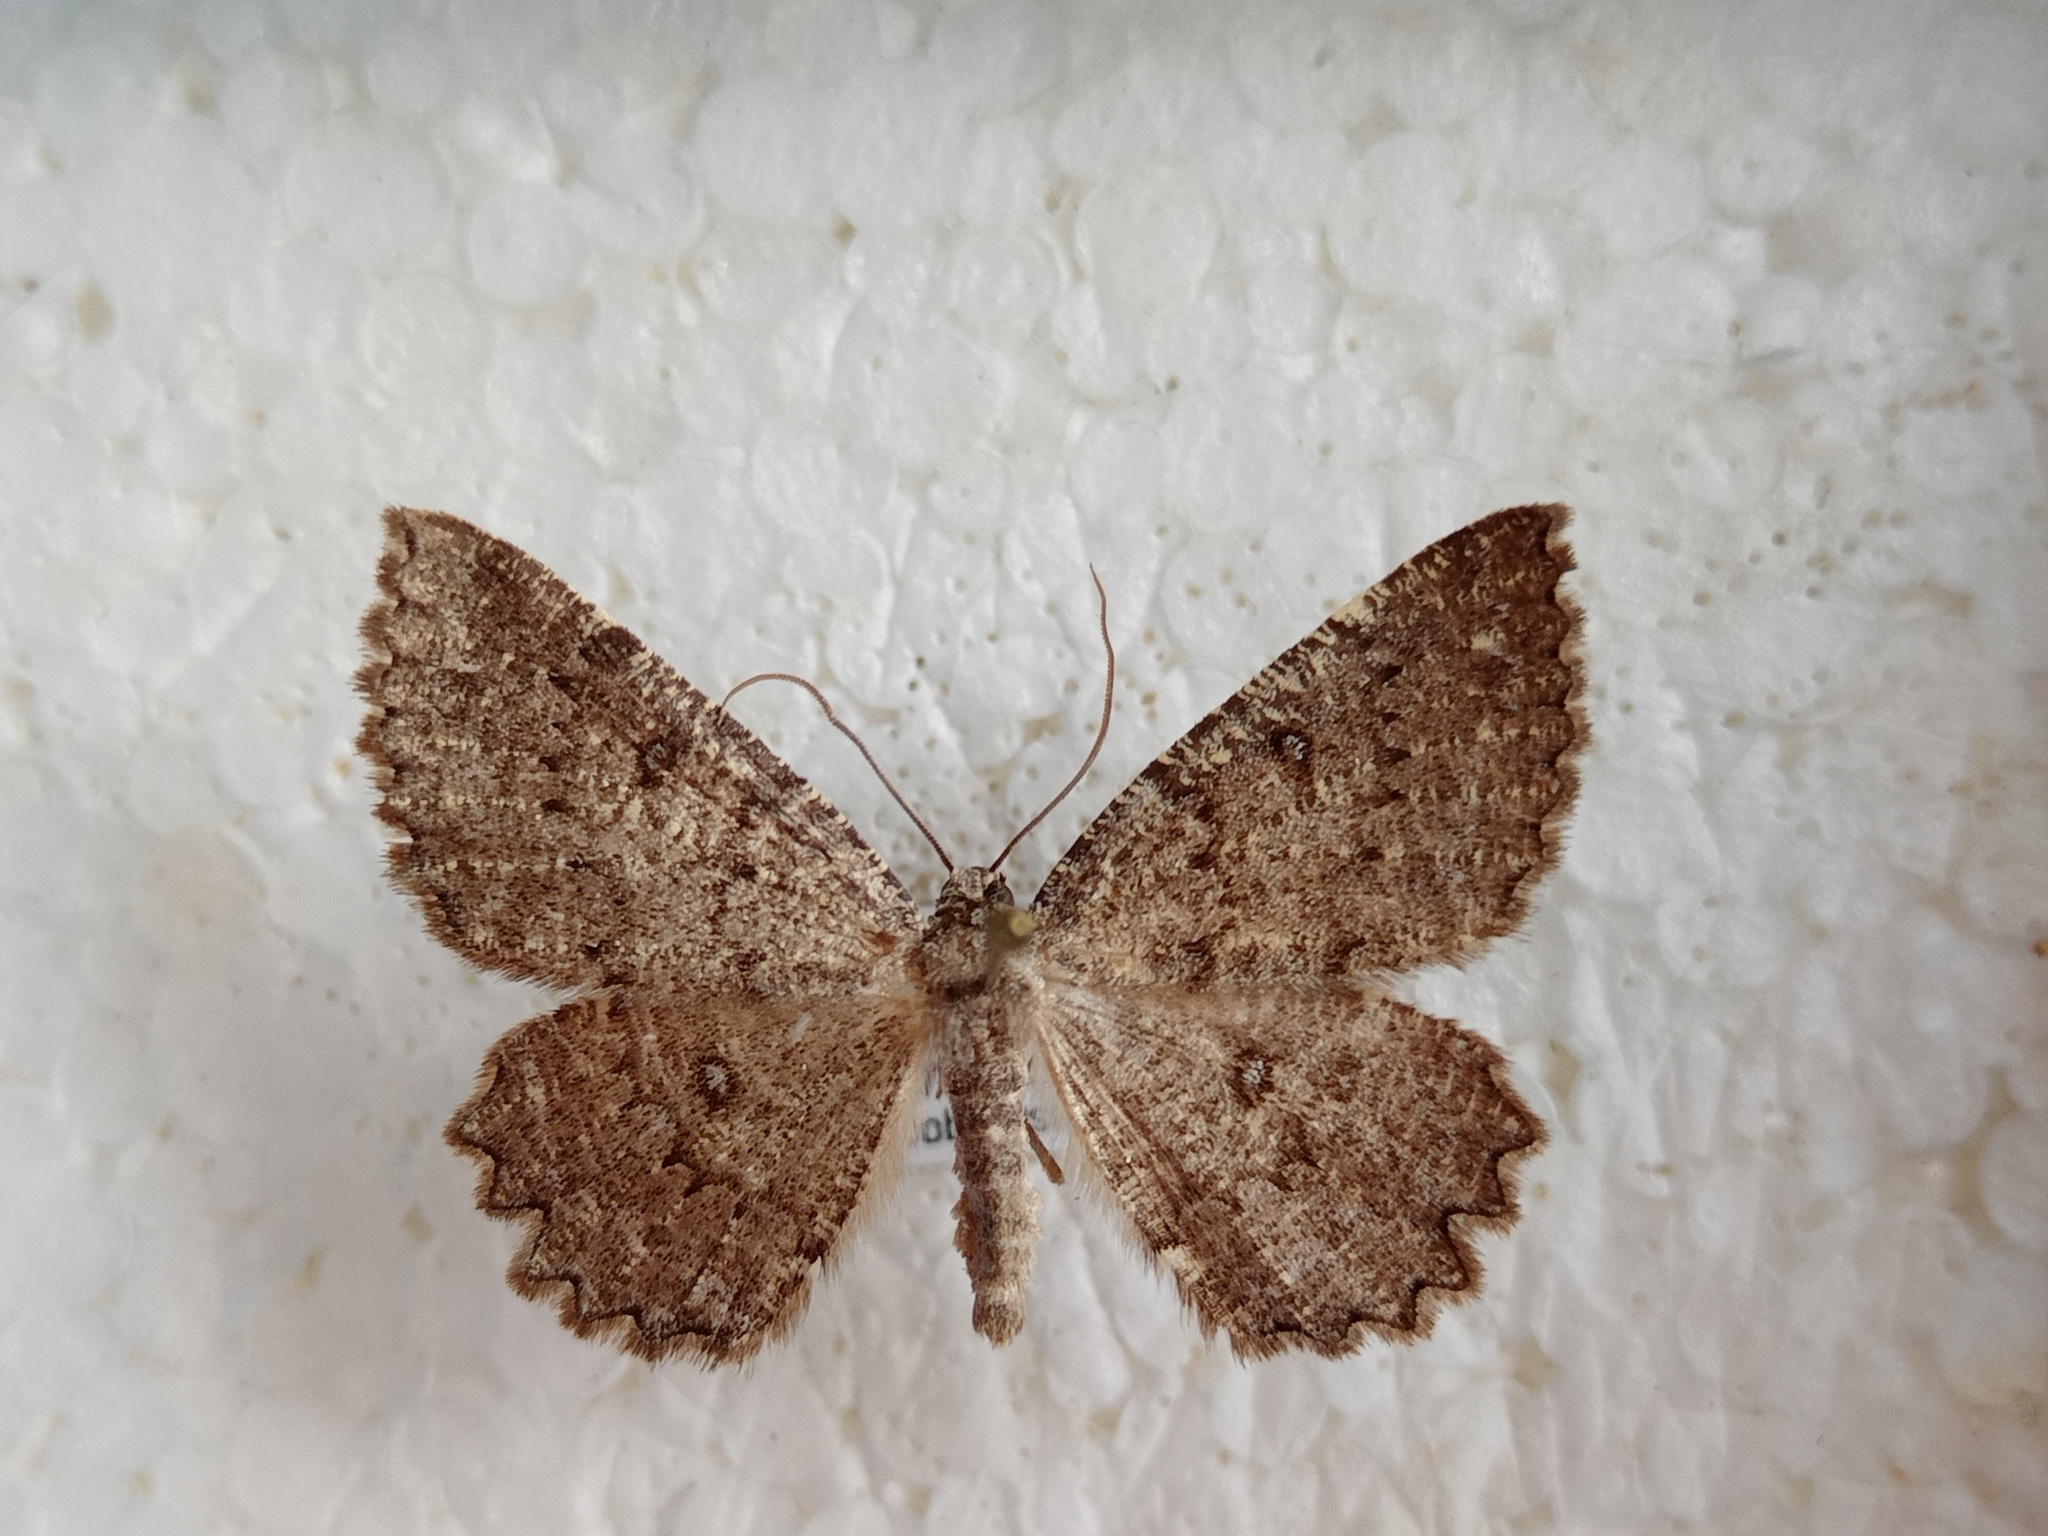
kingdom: Animalia
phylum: Arthropoda
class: Insecta
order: Lepidoptera
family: Geometridae
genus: Charissa
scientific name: Charissa obscurata
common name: Annulet
